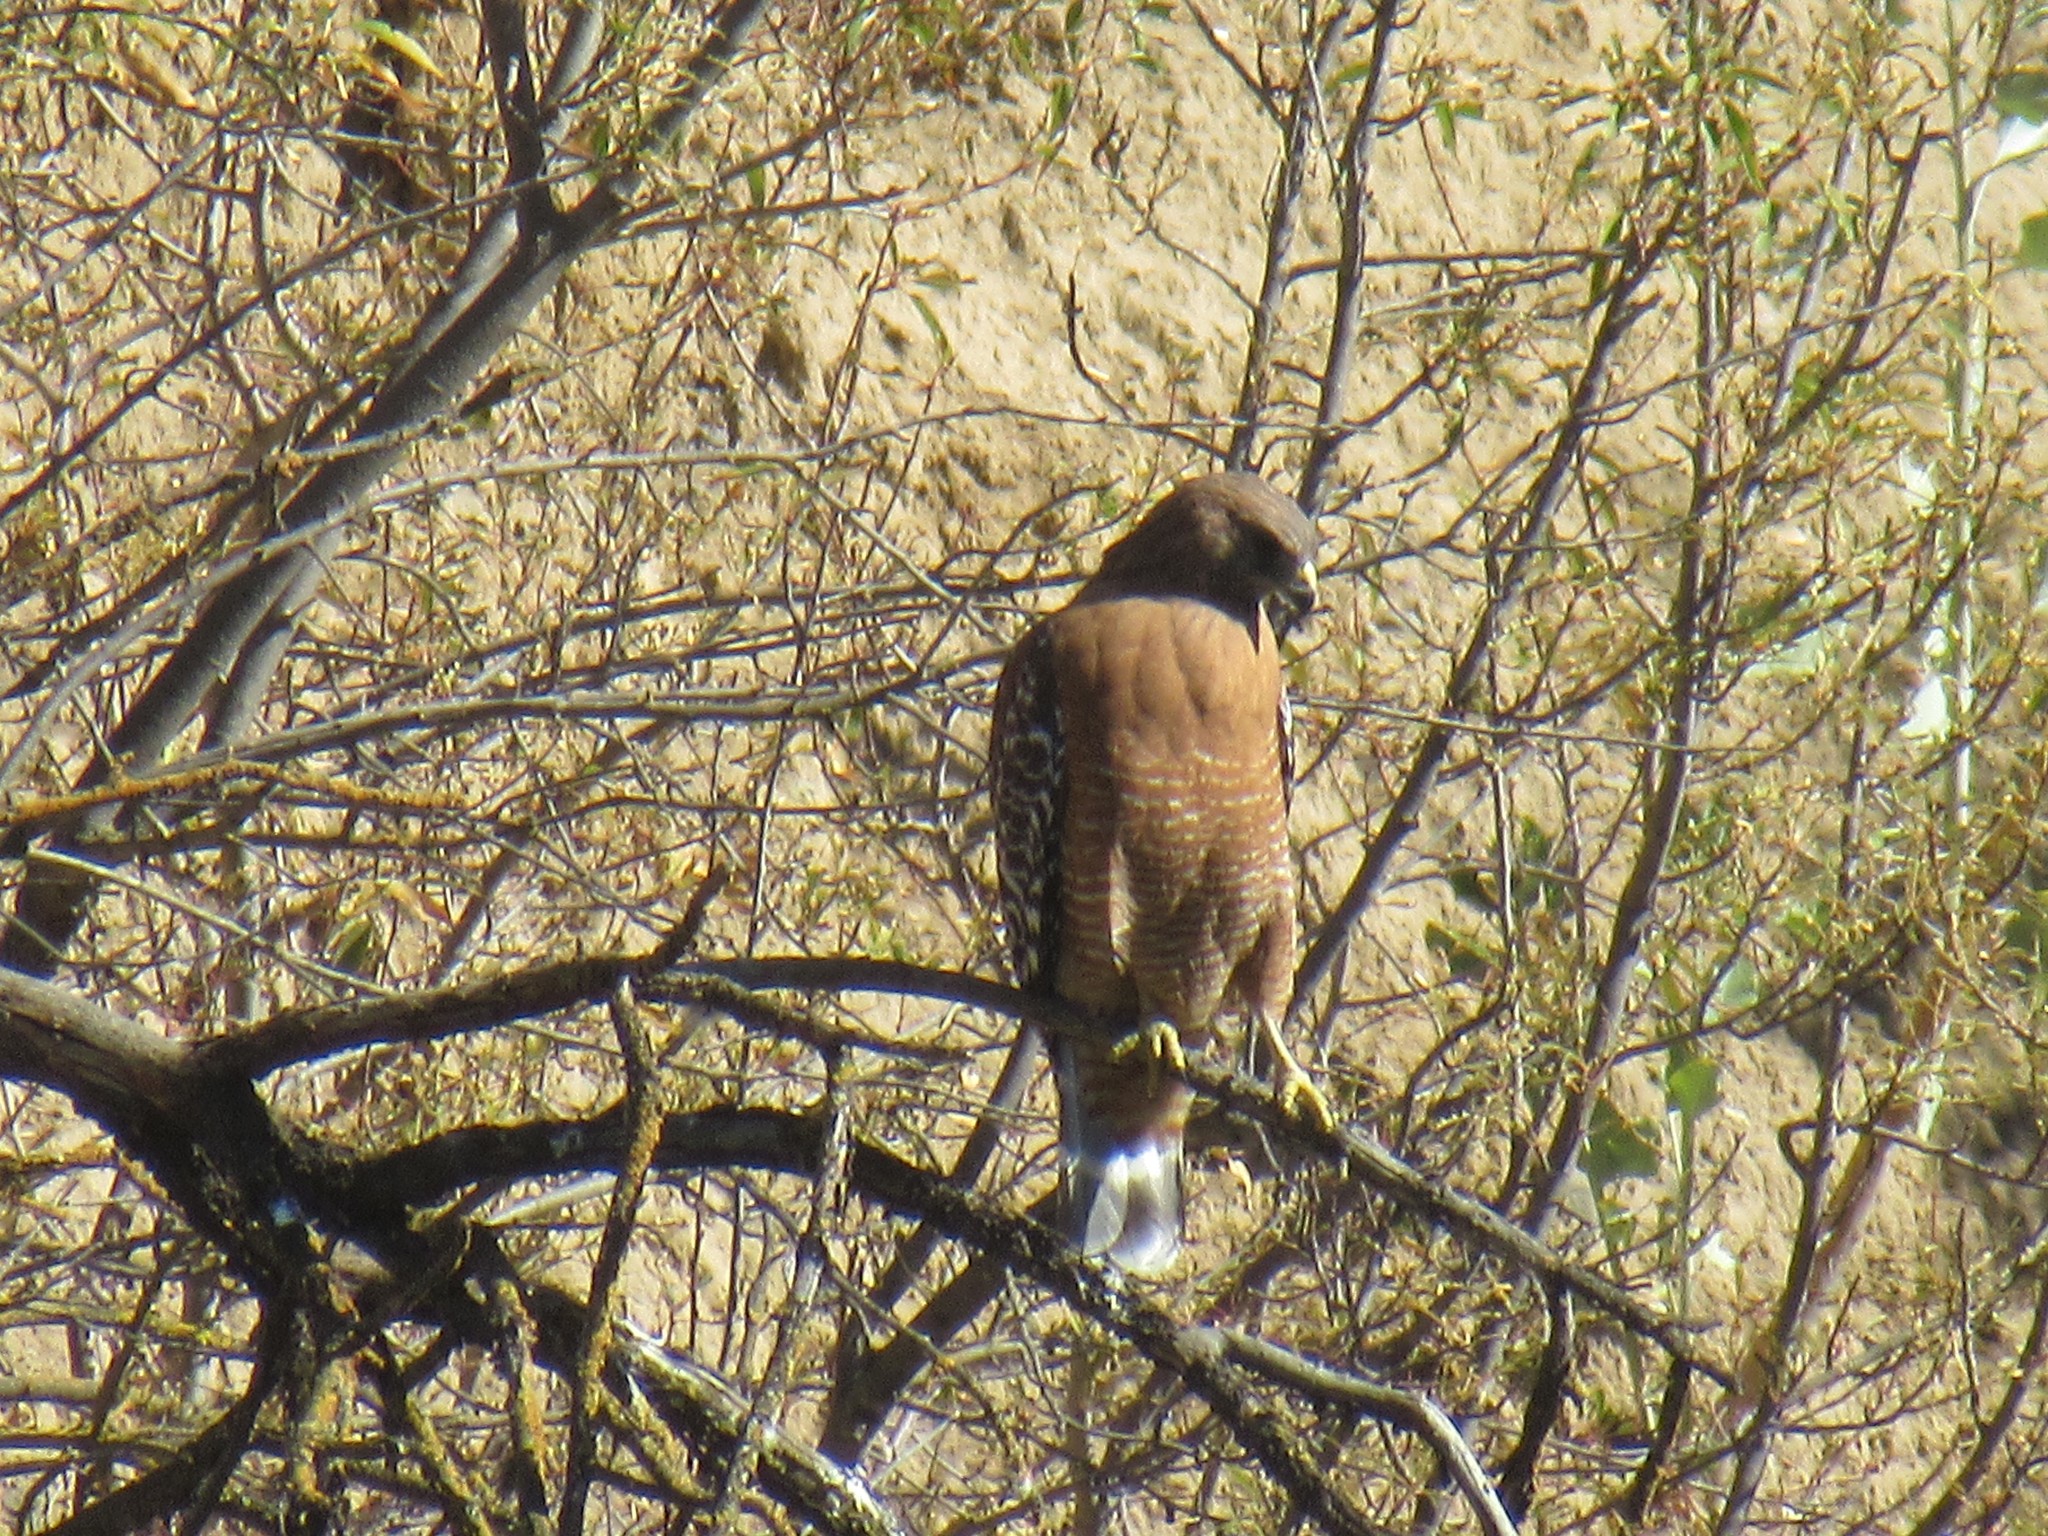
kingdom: Animalia
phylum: Chordata
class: Aves
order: Accipitriformes
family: Accipitridae
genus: Buteo
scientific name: Buteo lineatus
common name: Red-shouldered hawk
